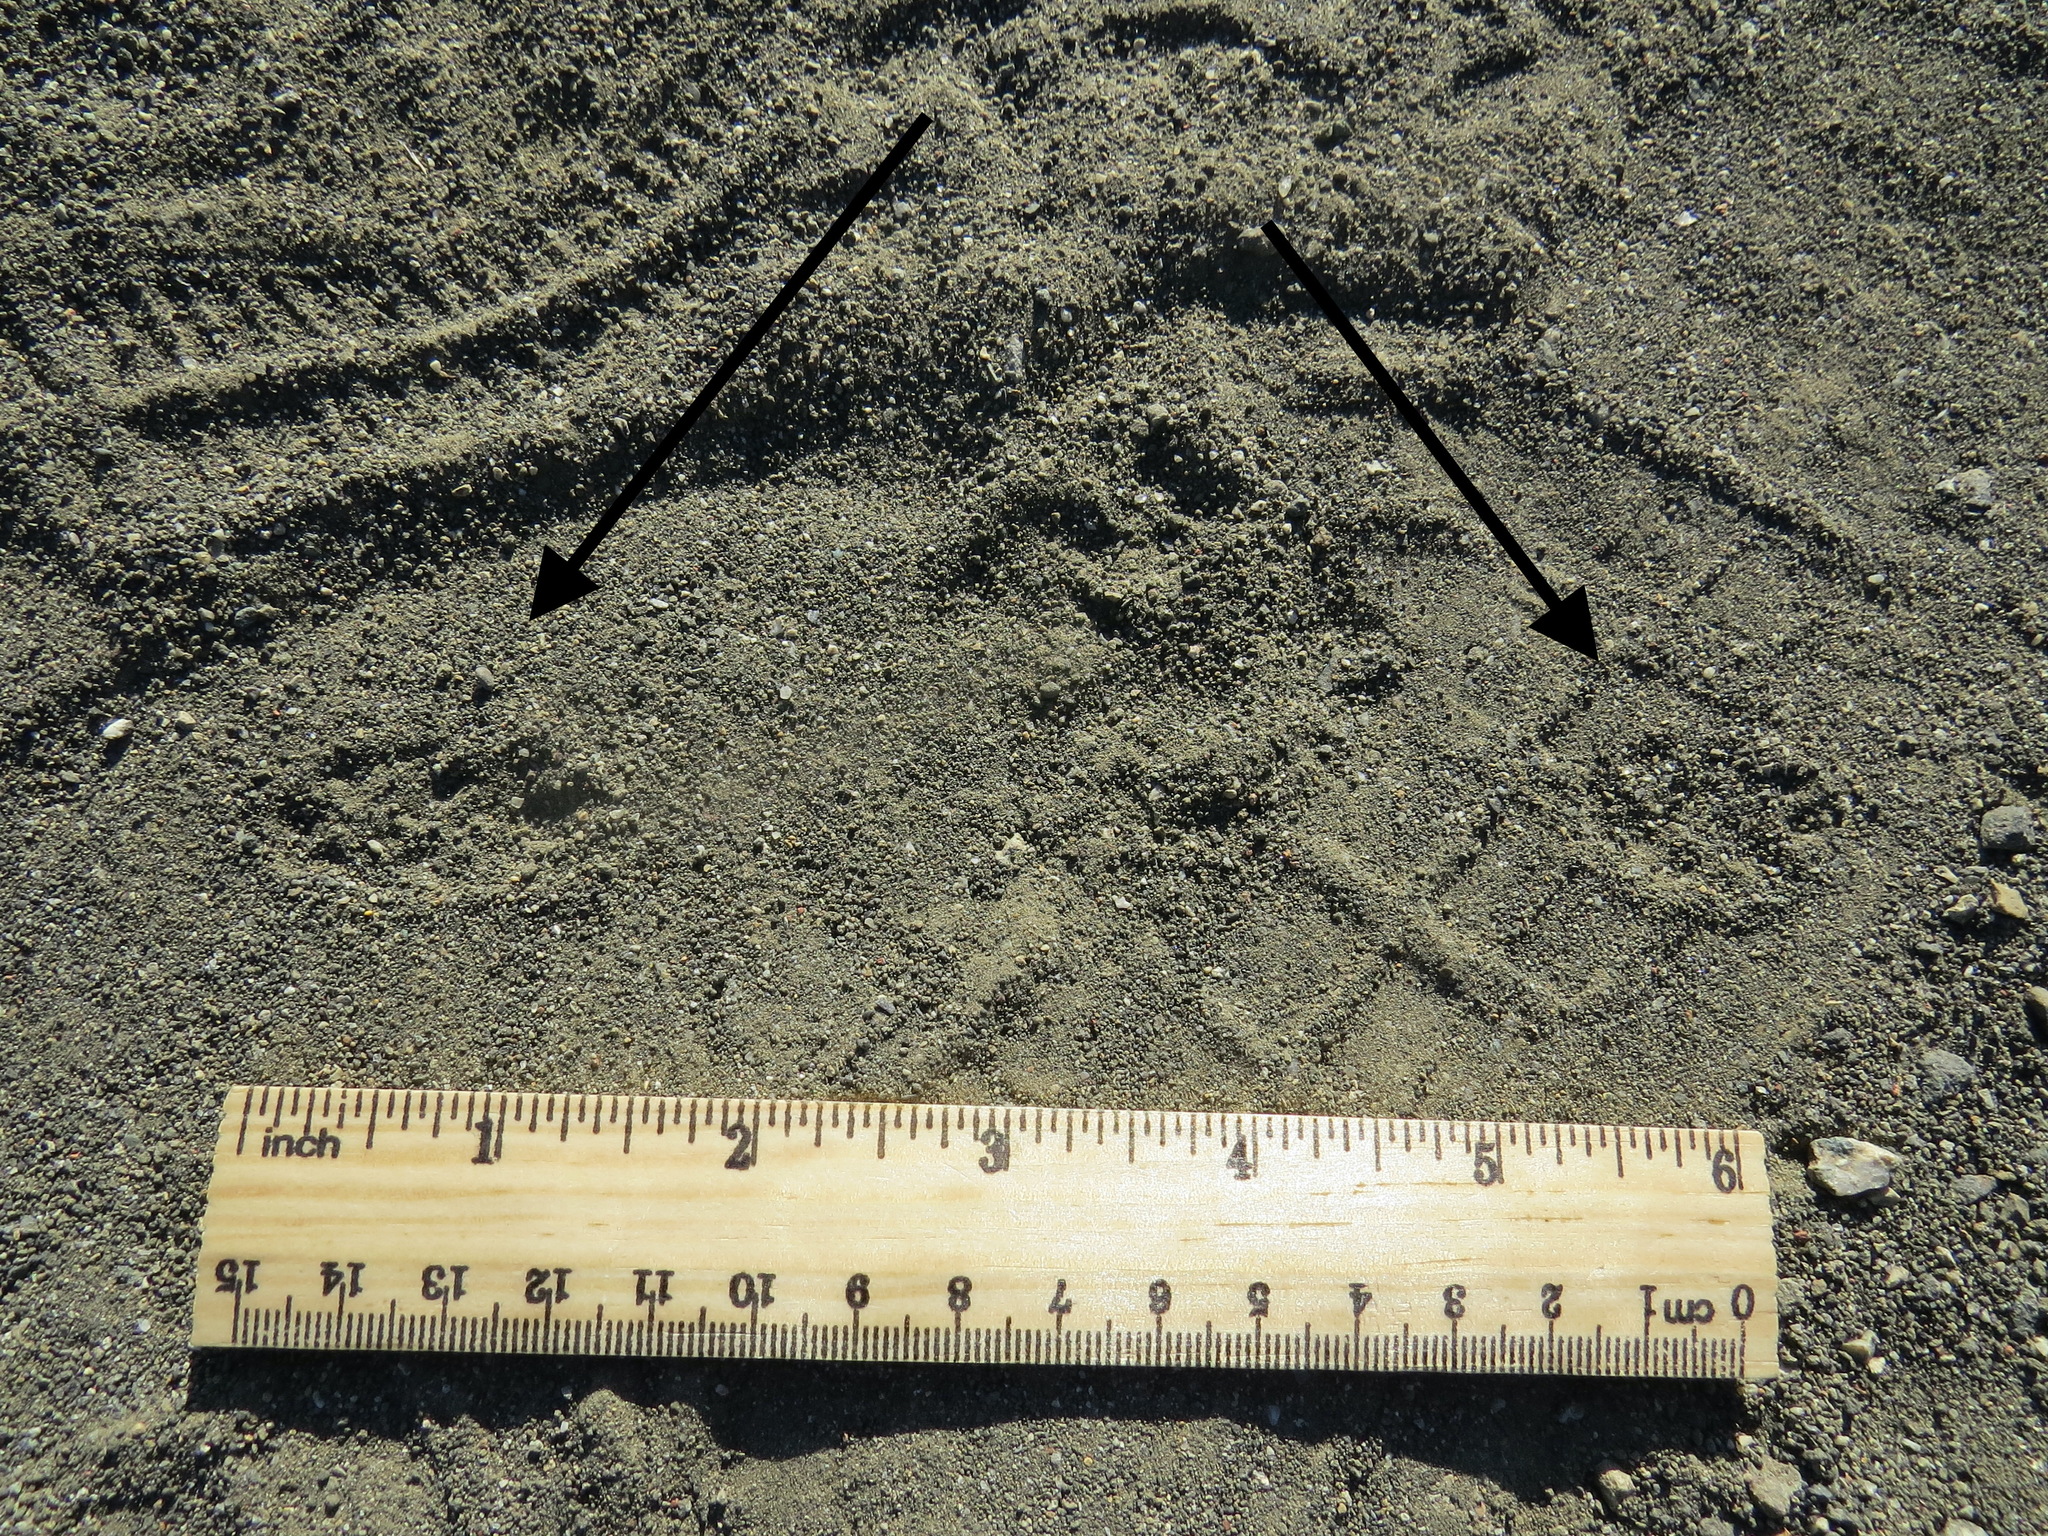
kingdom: Animalia
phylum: Chordata
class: Mammalia
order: Carnivora
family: Mustelidae
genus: Mustela
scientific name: Mustela
